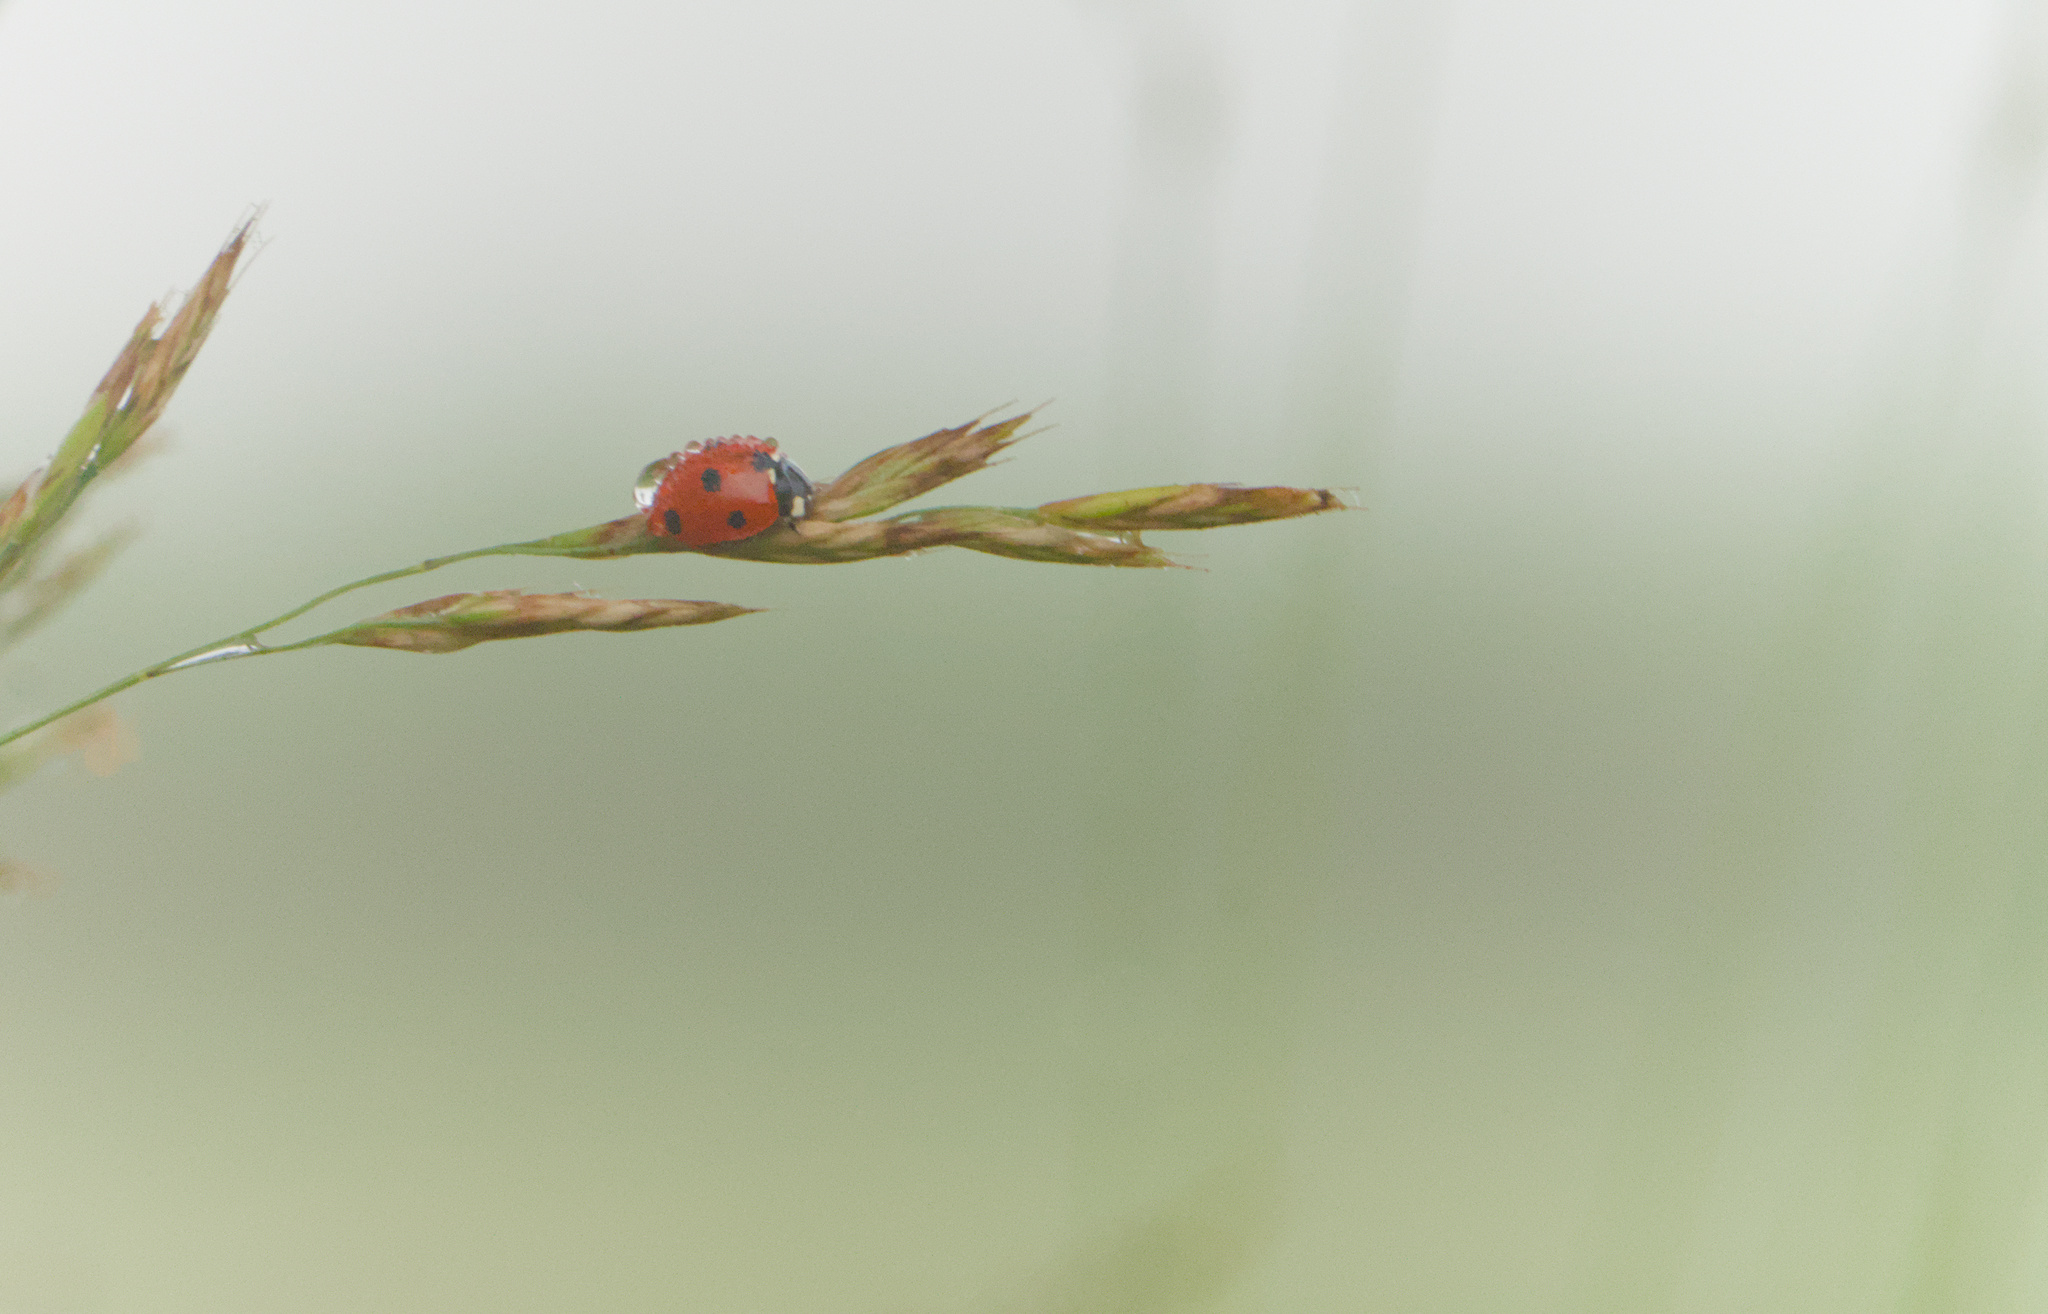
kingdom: Animalia
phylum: Arthropoda
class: Insecta
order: Coleoptera
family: Coccinellidae
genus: Coccinella
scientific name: Coccinella septempunctata
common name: Sevenspotted lady beetle
